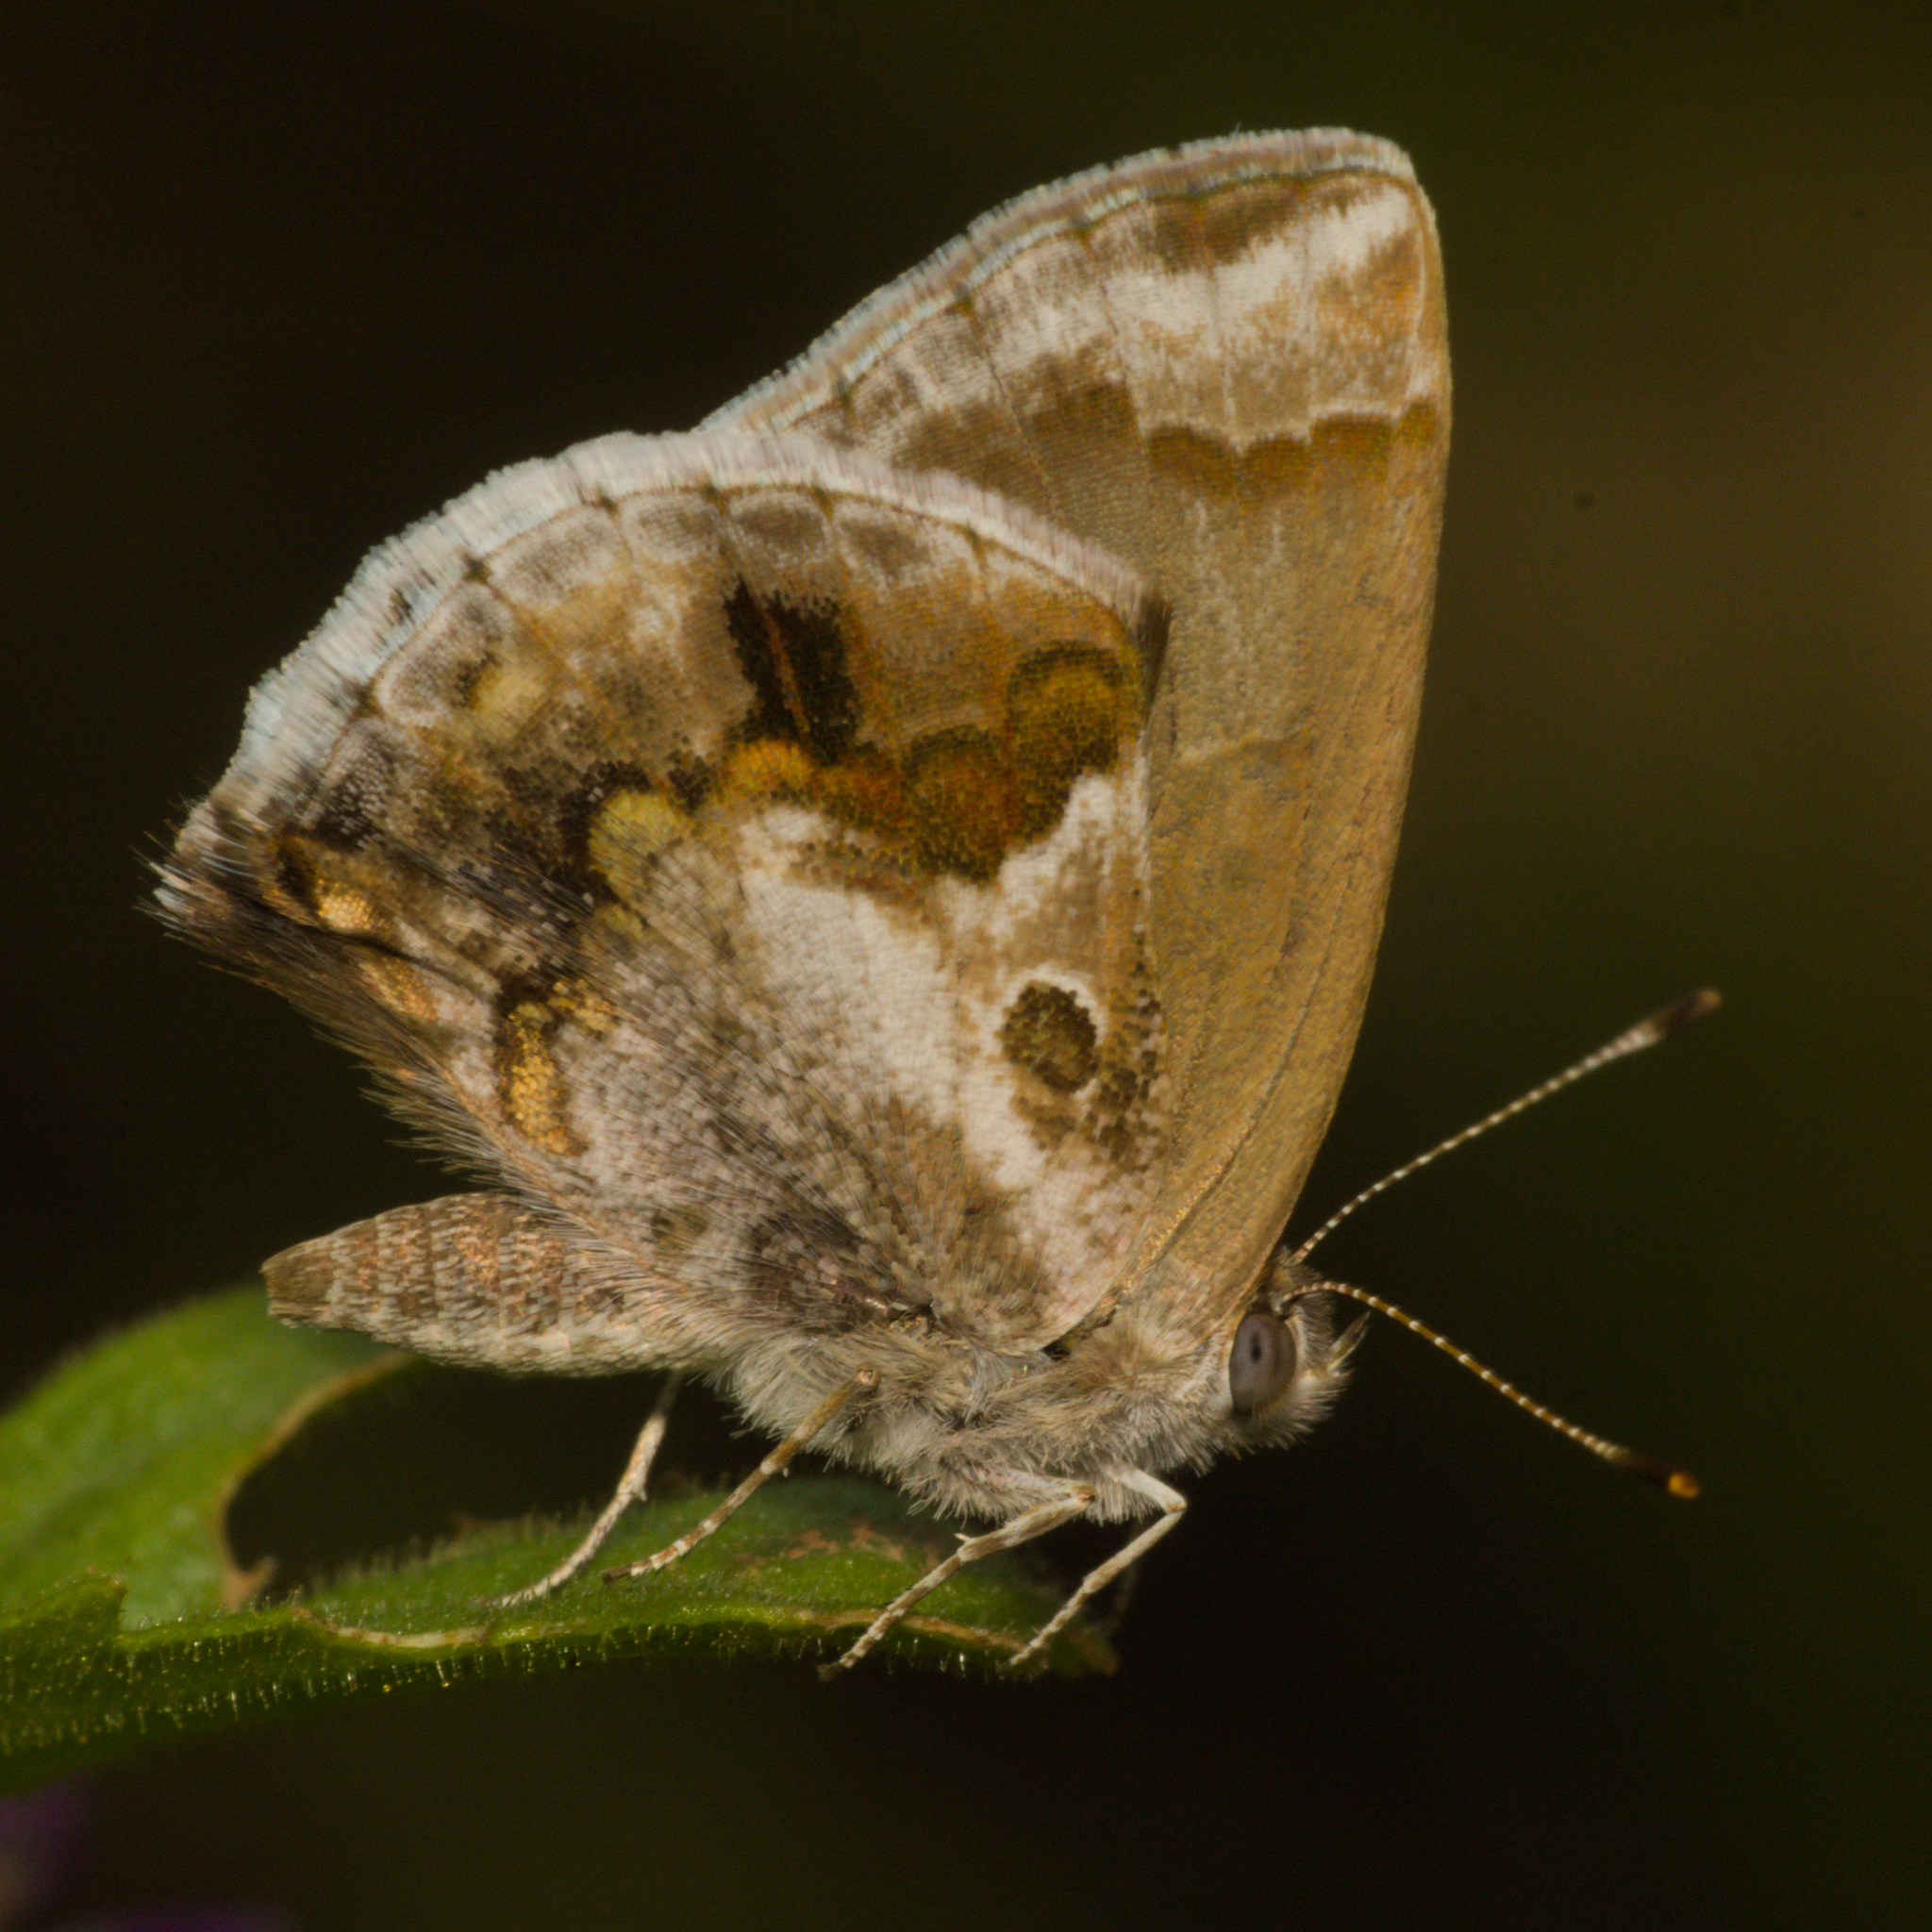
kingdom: Animalia
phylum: Arthropoda
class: Insecta
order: Lepidoptera
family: Lycaenidae
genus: Strymon
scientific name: Strymon bazochii
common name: Lantana scrub-hairstreak
